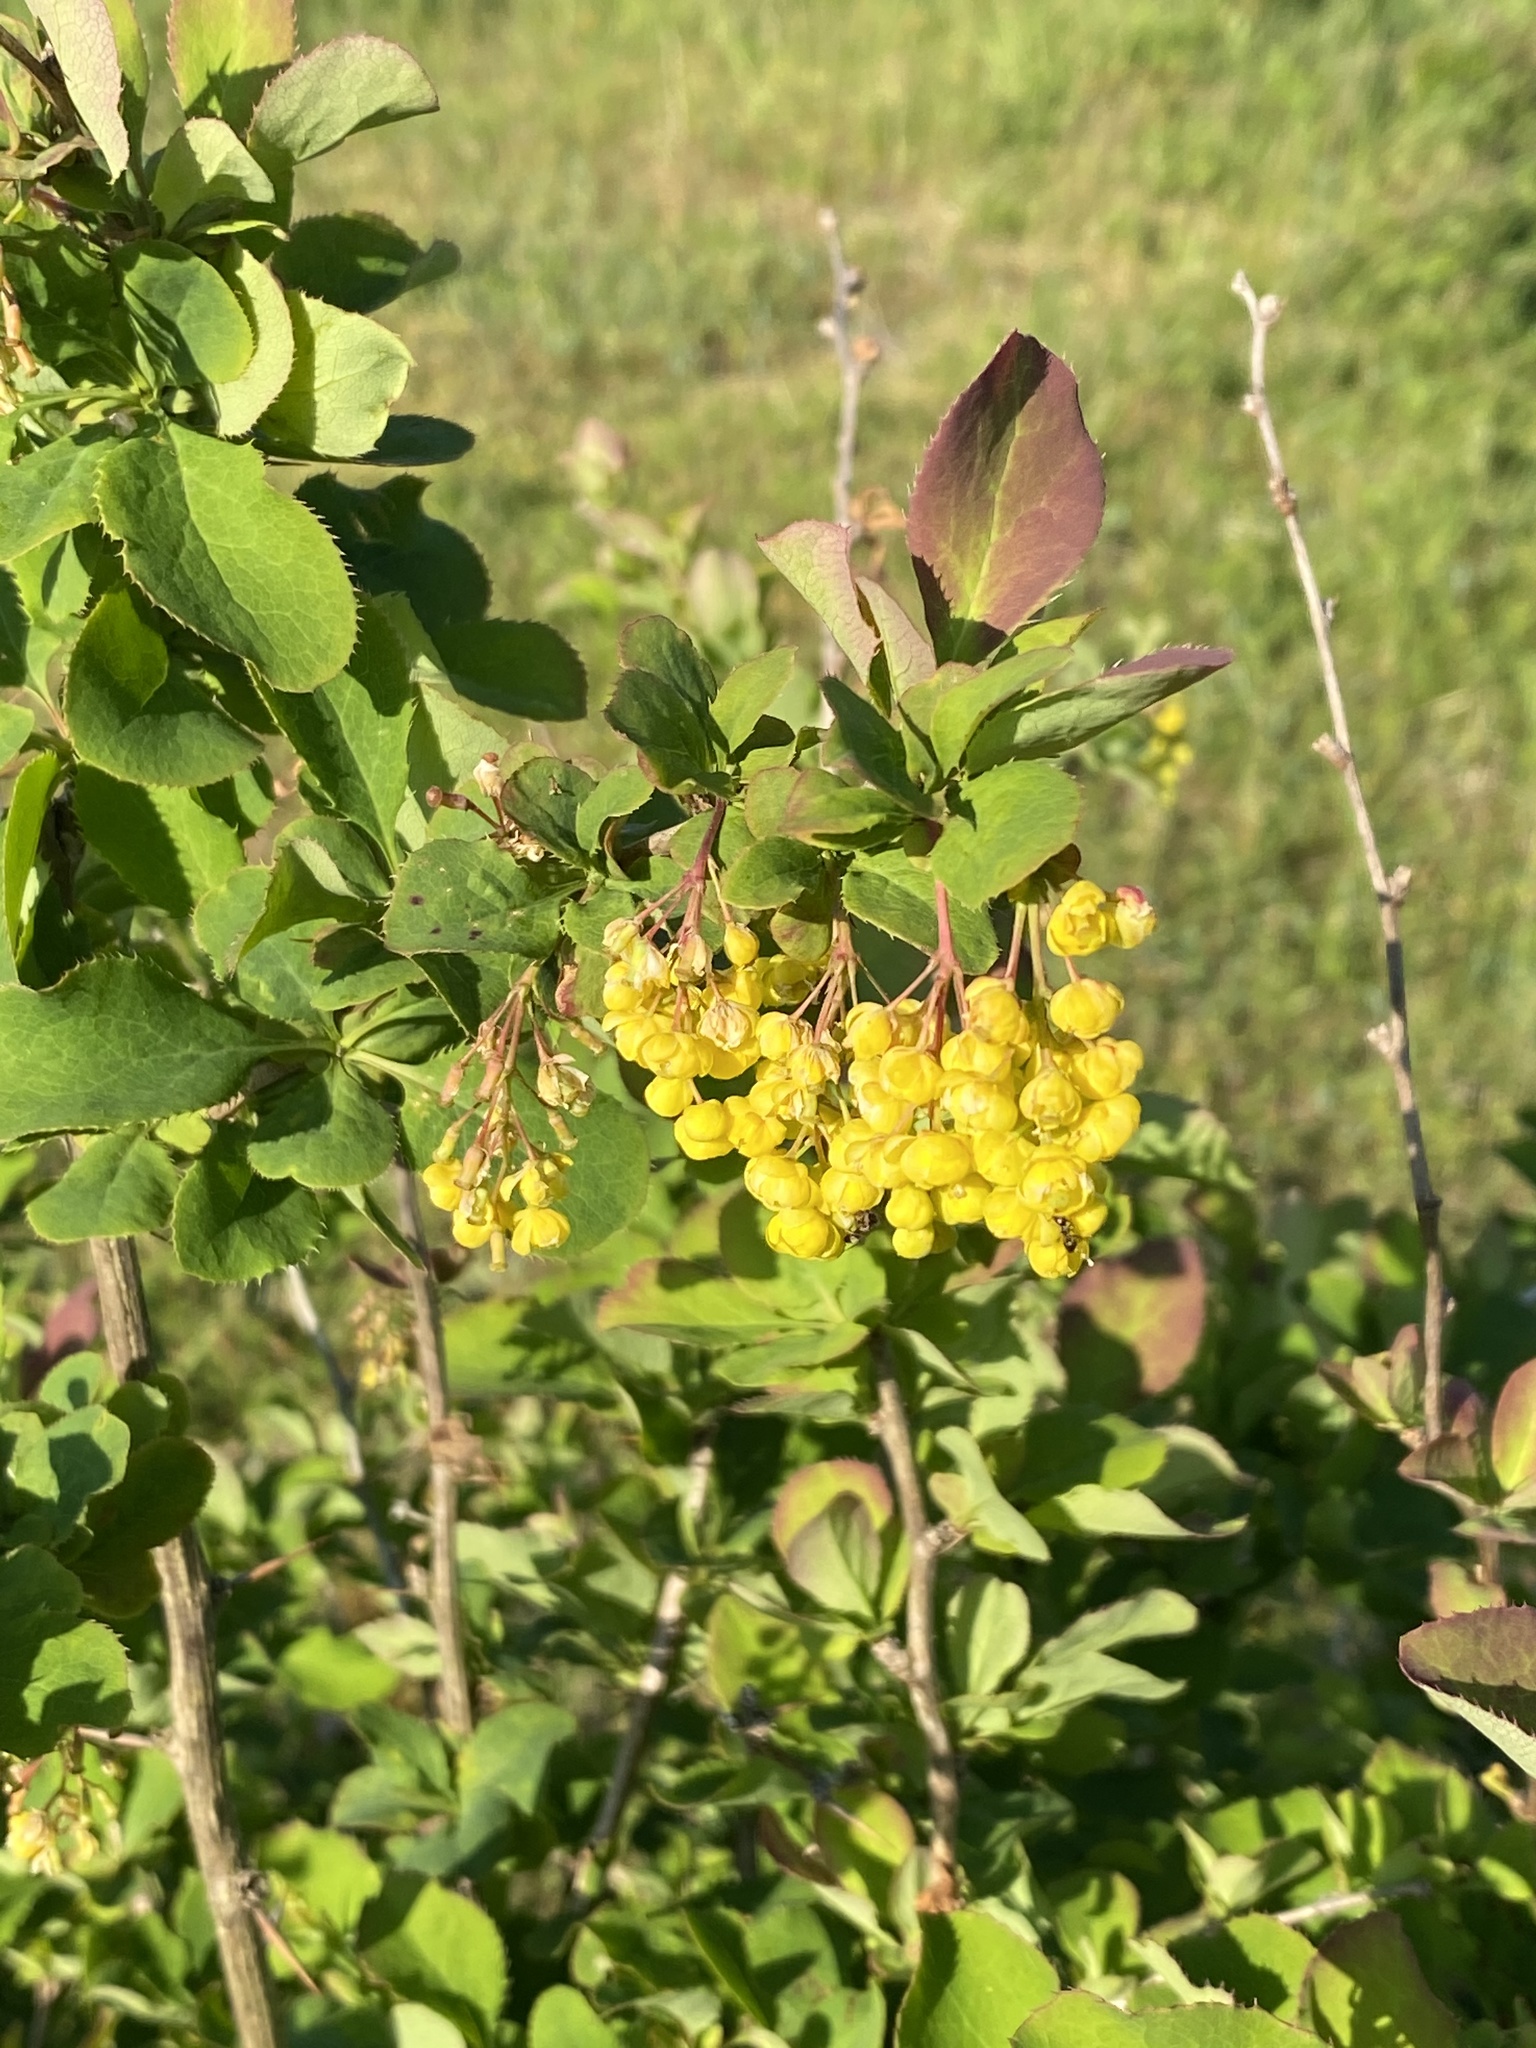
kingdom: Plantae
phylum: Tracheophyta
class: Magnoliopsida
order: Ranunculales
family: Berberidaceae
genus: Berberis
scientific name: Berberis vulgaris
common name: Barberry
